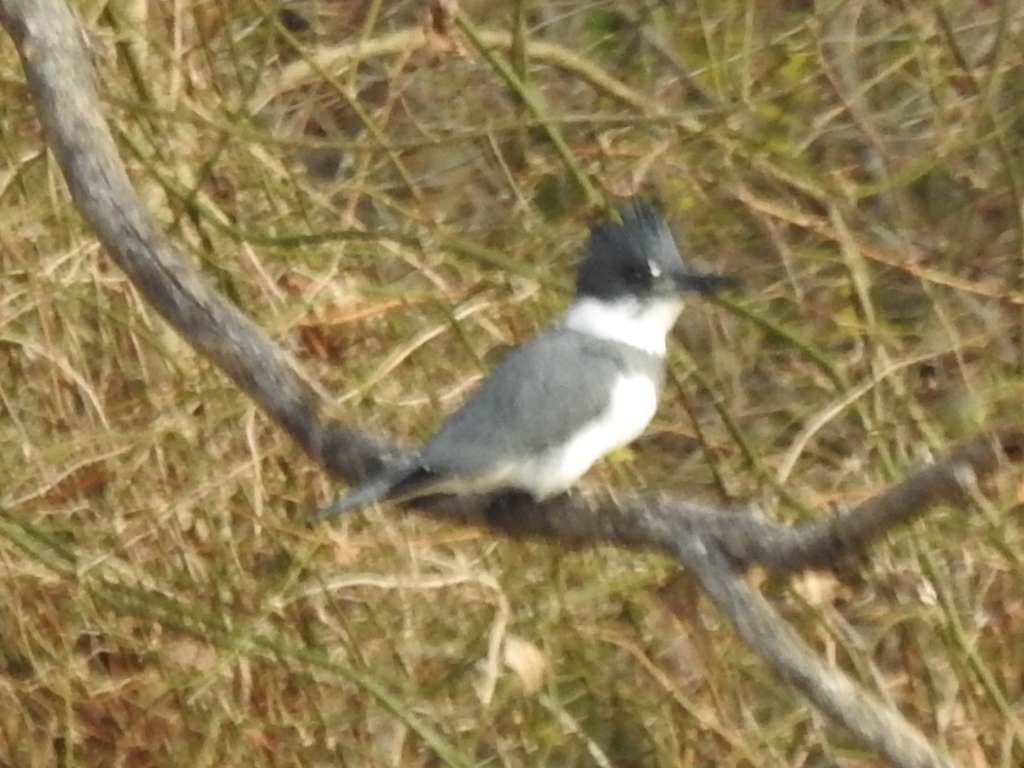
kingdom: Animalia
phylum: Chordata
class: Aves
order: Coraciiformes
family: Alcedinidae
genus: Megaceryle
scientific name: Megaceryle alcyon
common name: Belted kingfisher
